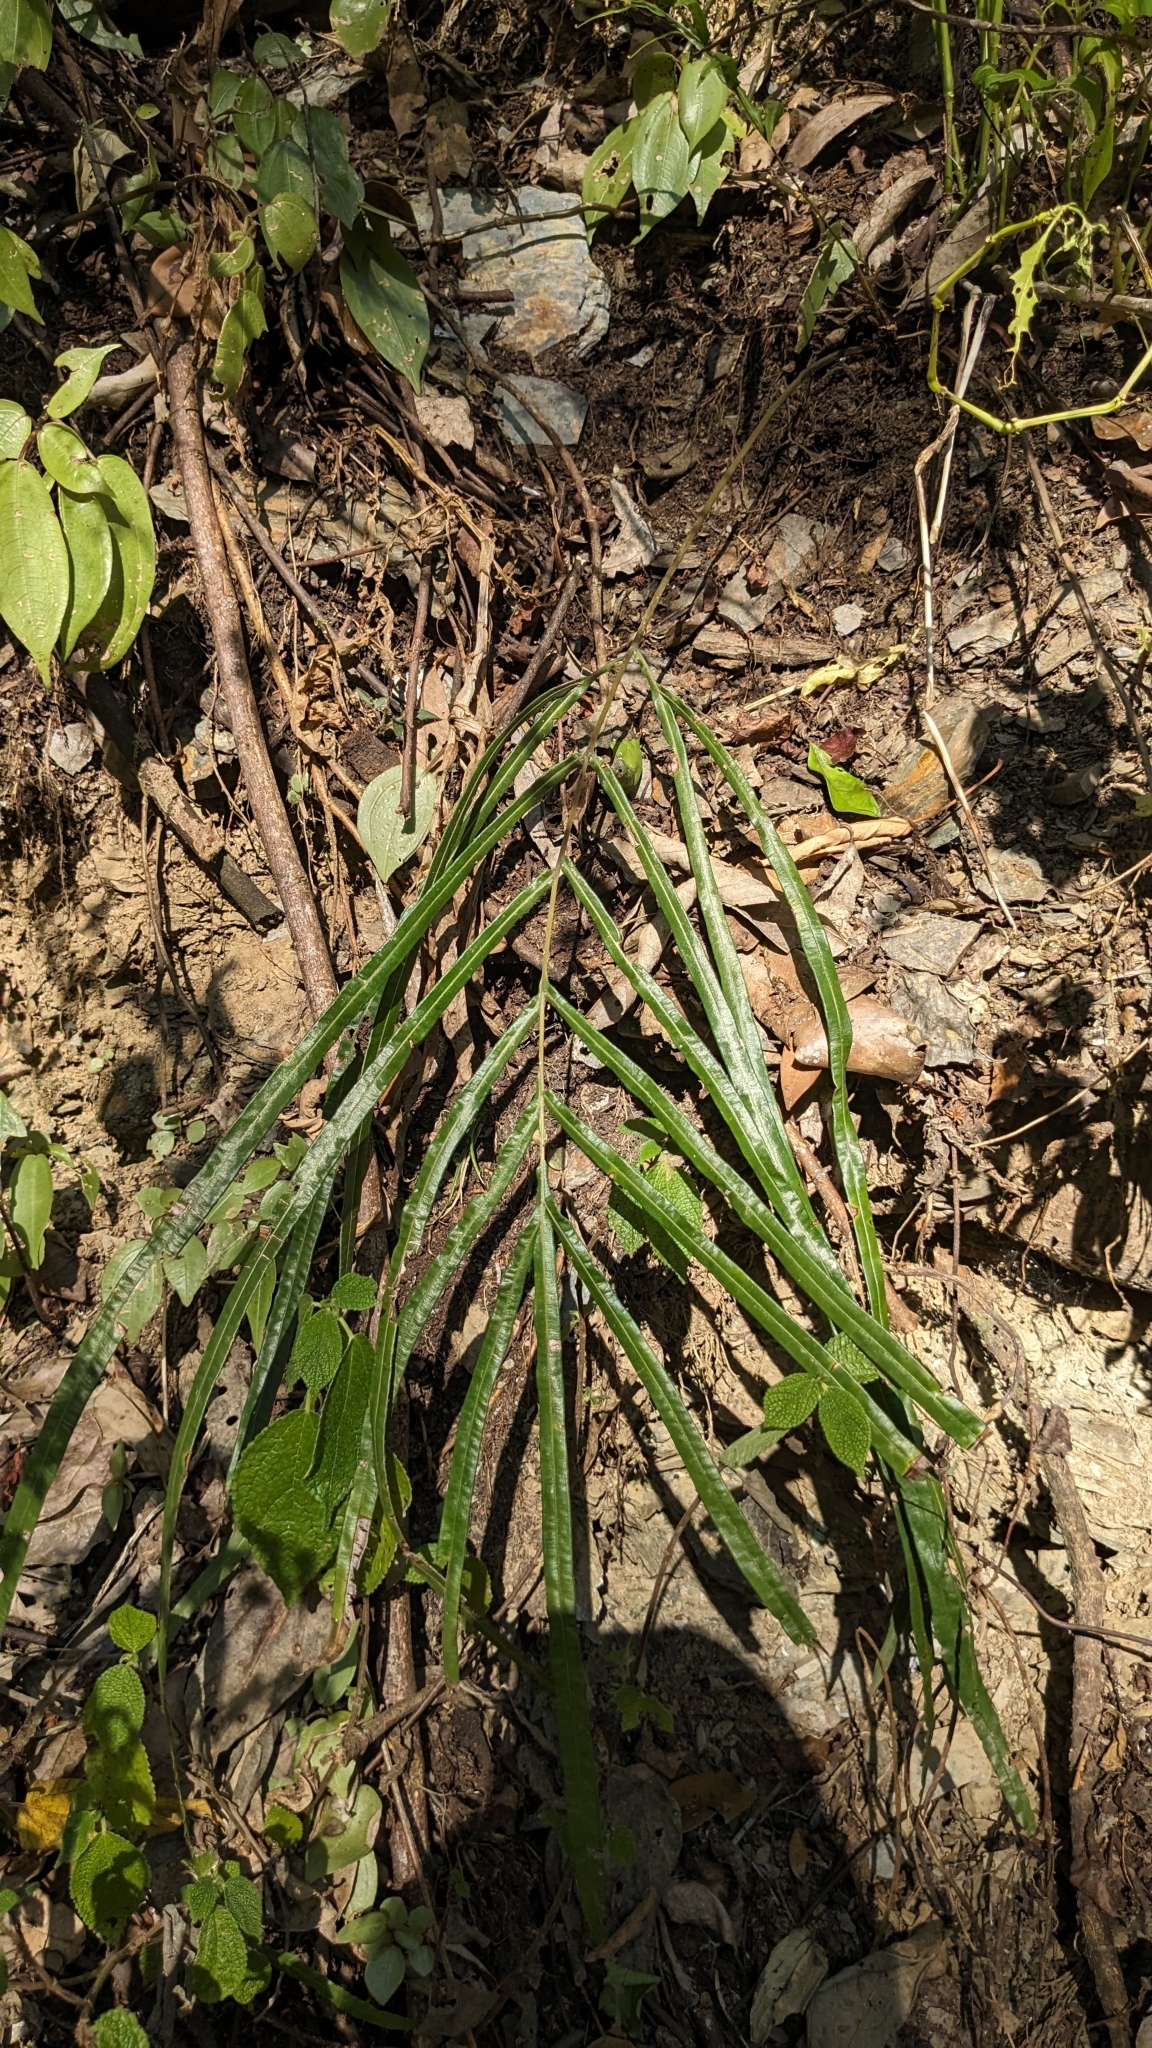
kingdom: Plantae
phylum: Tracheophyta
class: Polypodiopsida
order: Polypodiales
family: Pteridaceae
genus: Pteris
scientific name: Pteris longipinna
